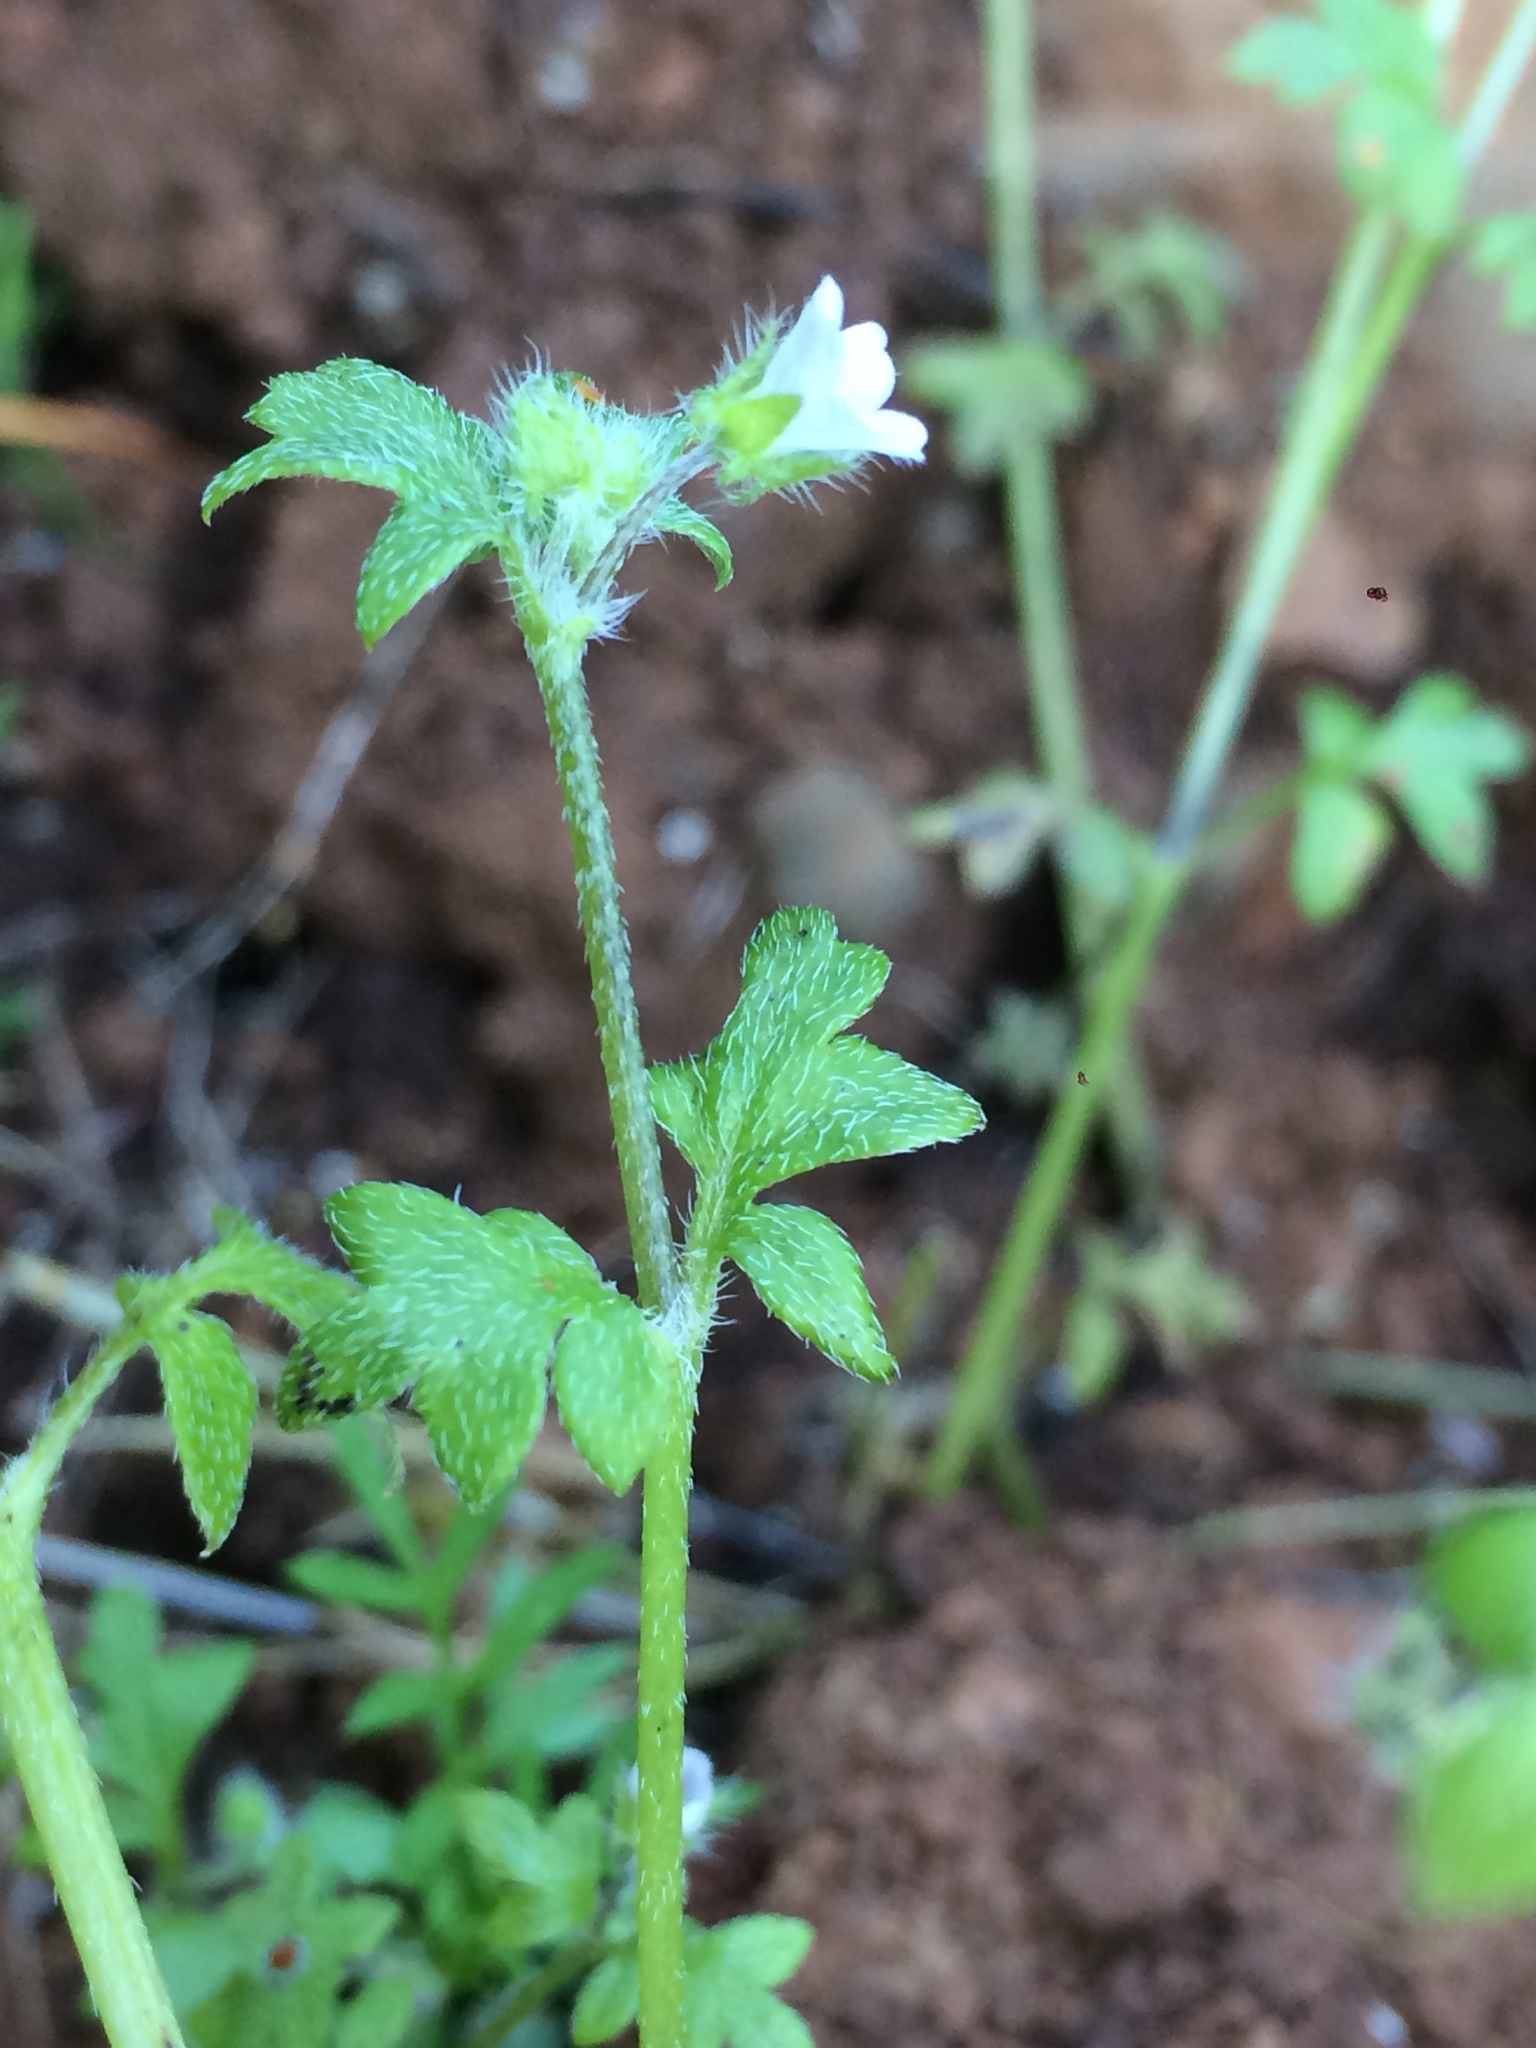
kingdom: Plantae
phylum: Tracheophyta
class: Magnoliopsida
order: Boraginales
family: Hydrophyllaceae
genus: Nemophila
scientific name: Nemophila parviflora
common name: Small-flowered baby-blue-eyes
